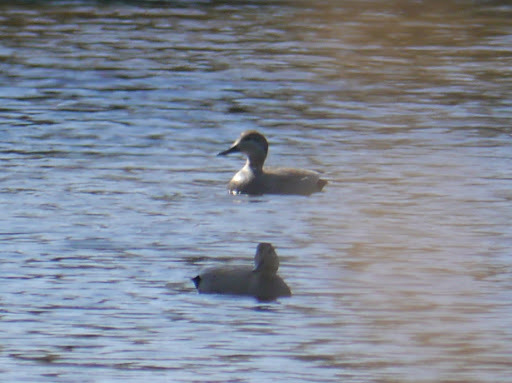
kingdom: Animalia
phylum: Chordata
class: Aves
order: Anseriformes
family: Anatidae
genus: Mareca
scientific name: Mareca strepera
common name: Gadwall
